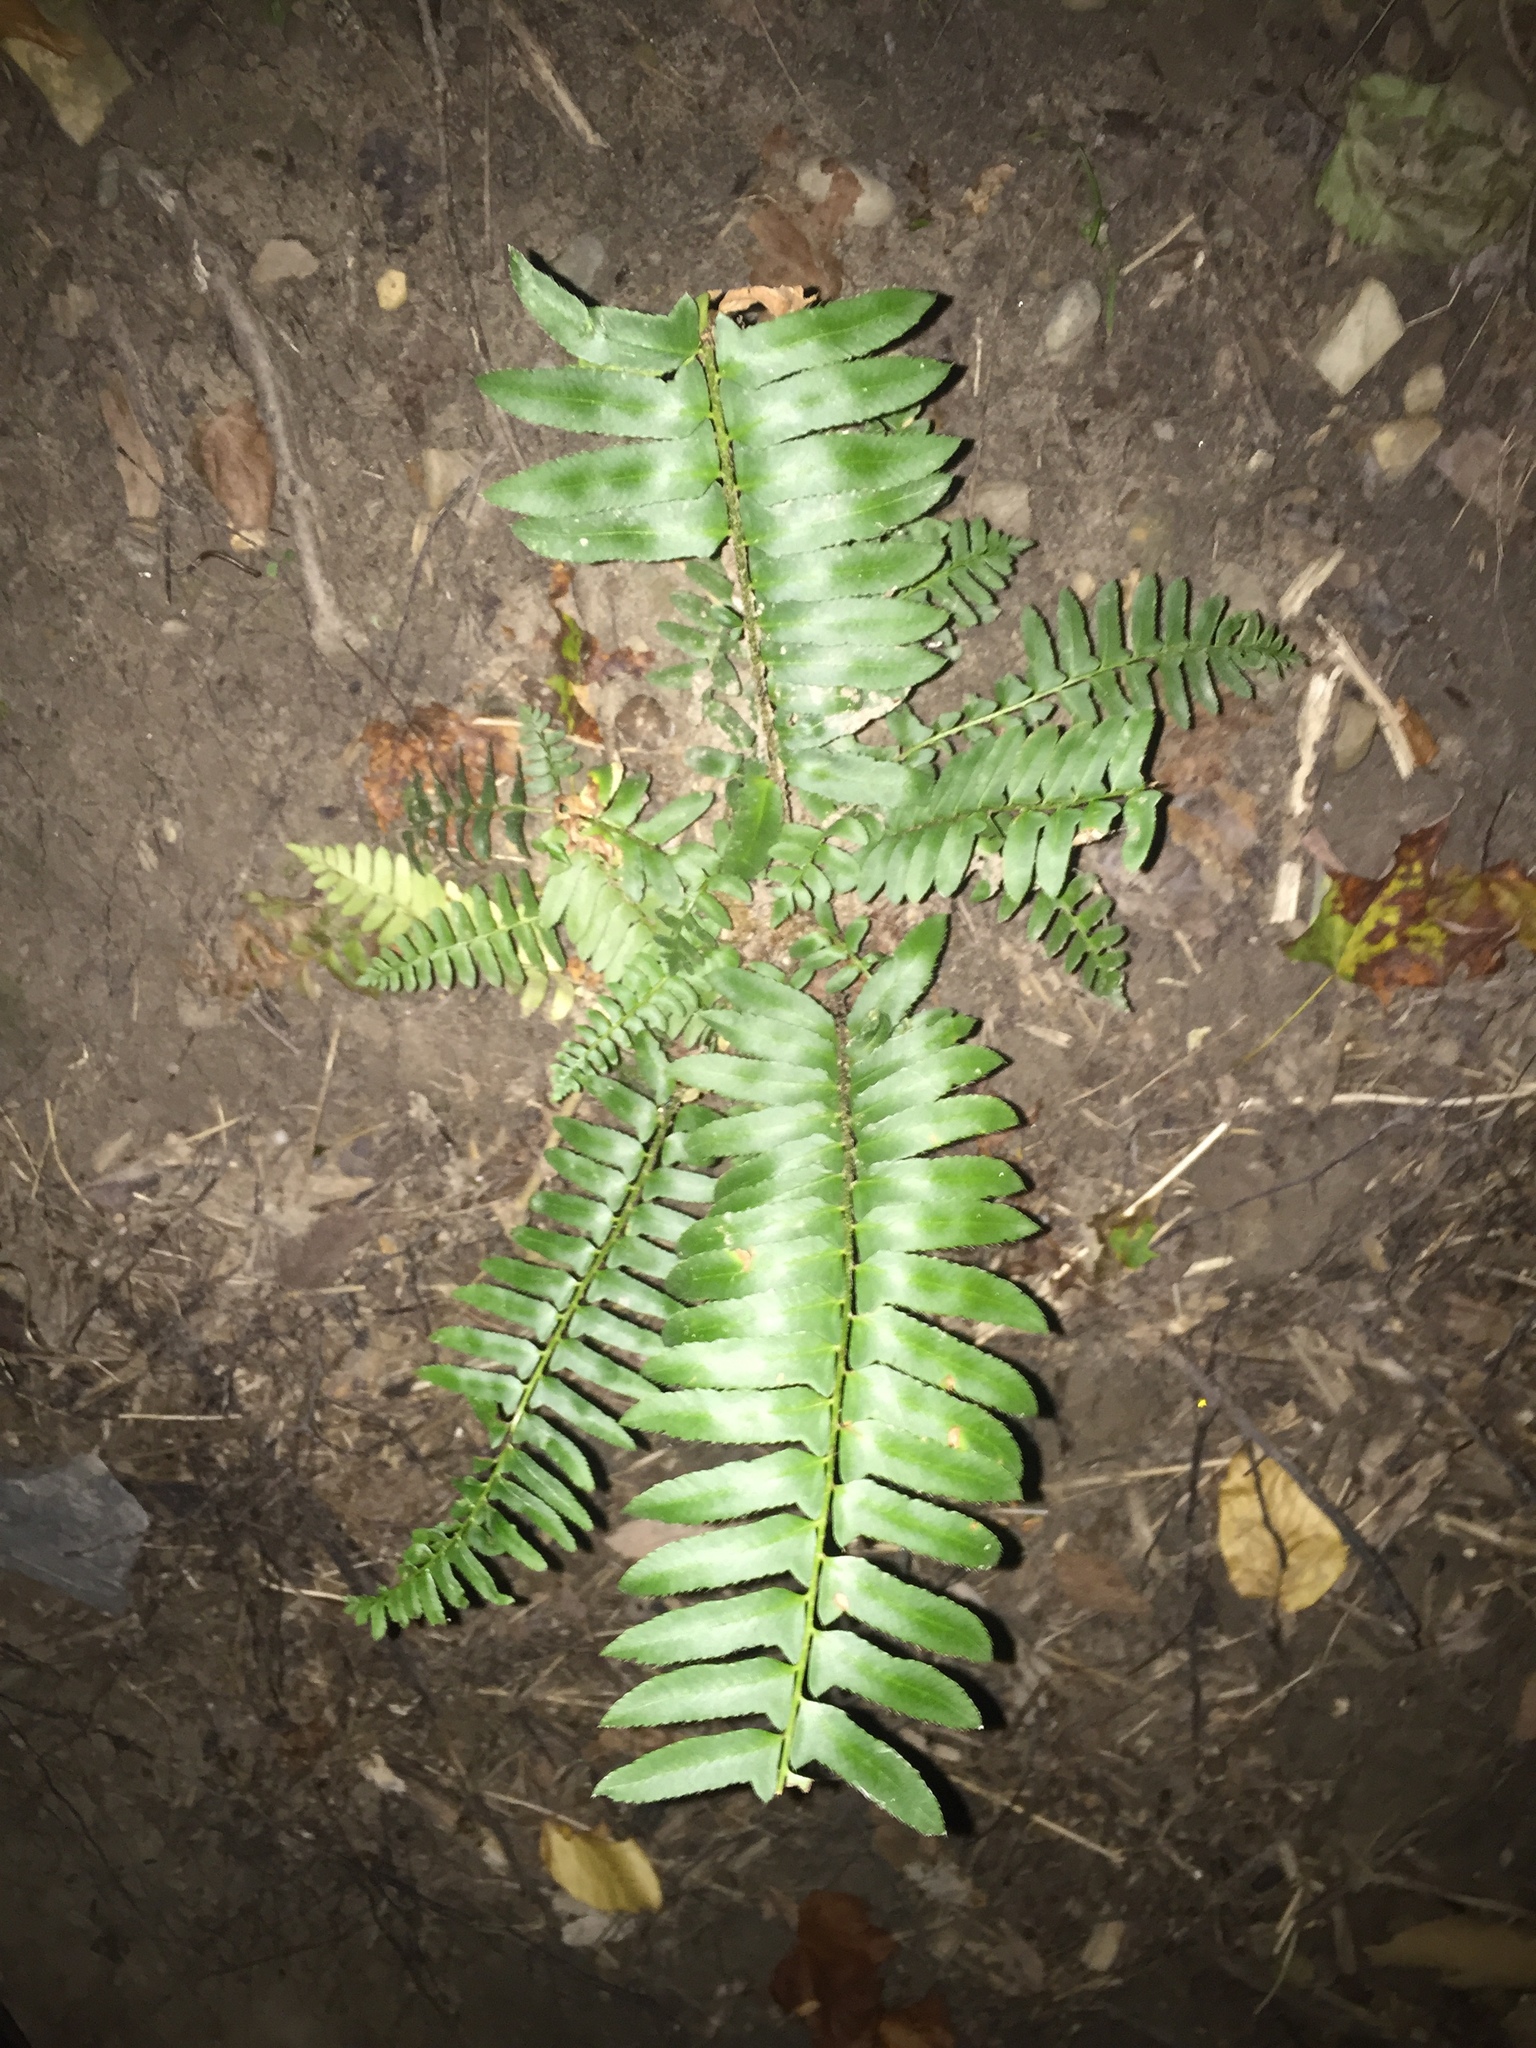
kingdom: Plantae
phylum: Tracheophyta
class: Polypodiopsida
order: Polypodiales
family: Dryopteridaceae
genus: Polystichum
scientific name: Polystichum acrostichoides
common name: Christmas fern
